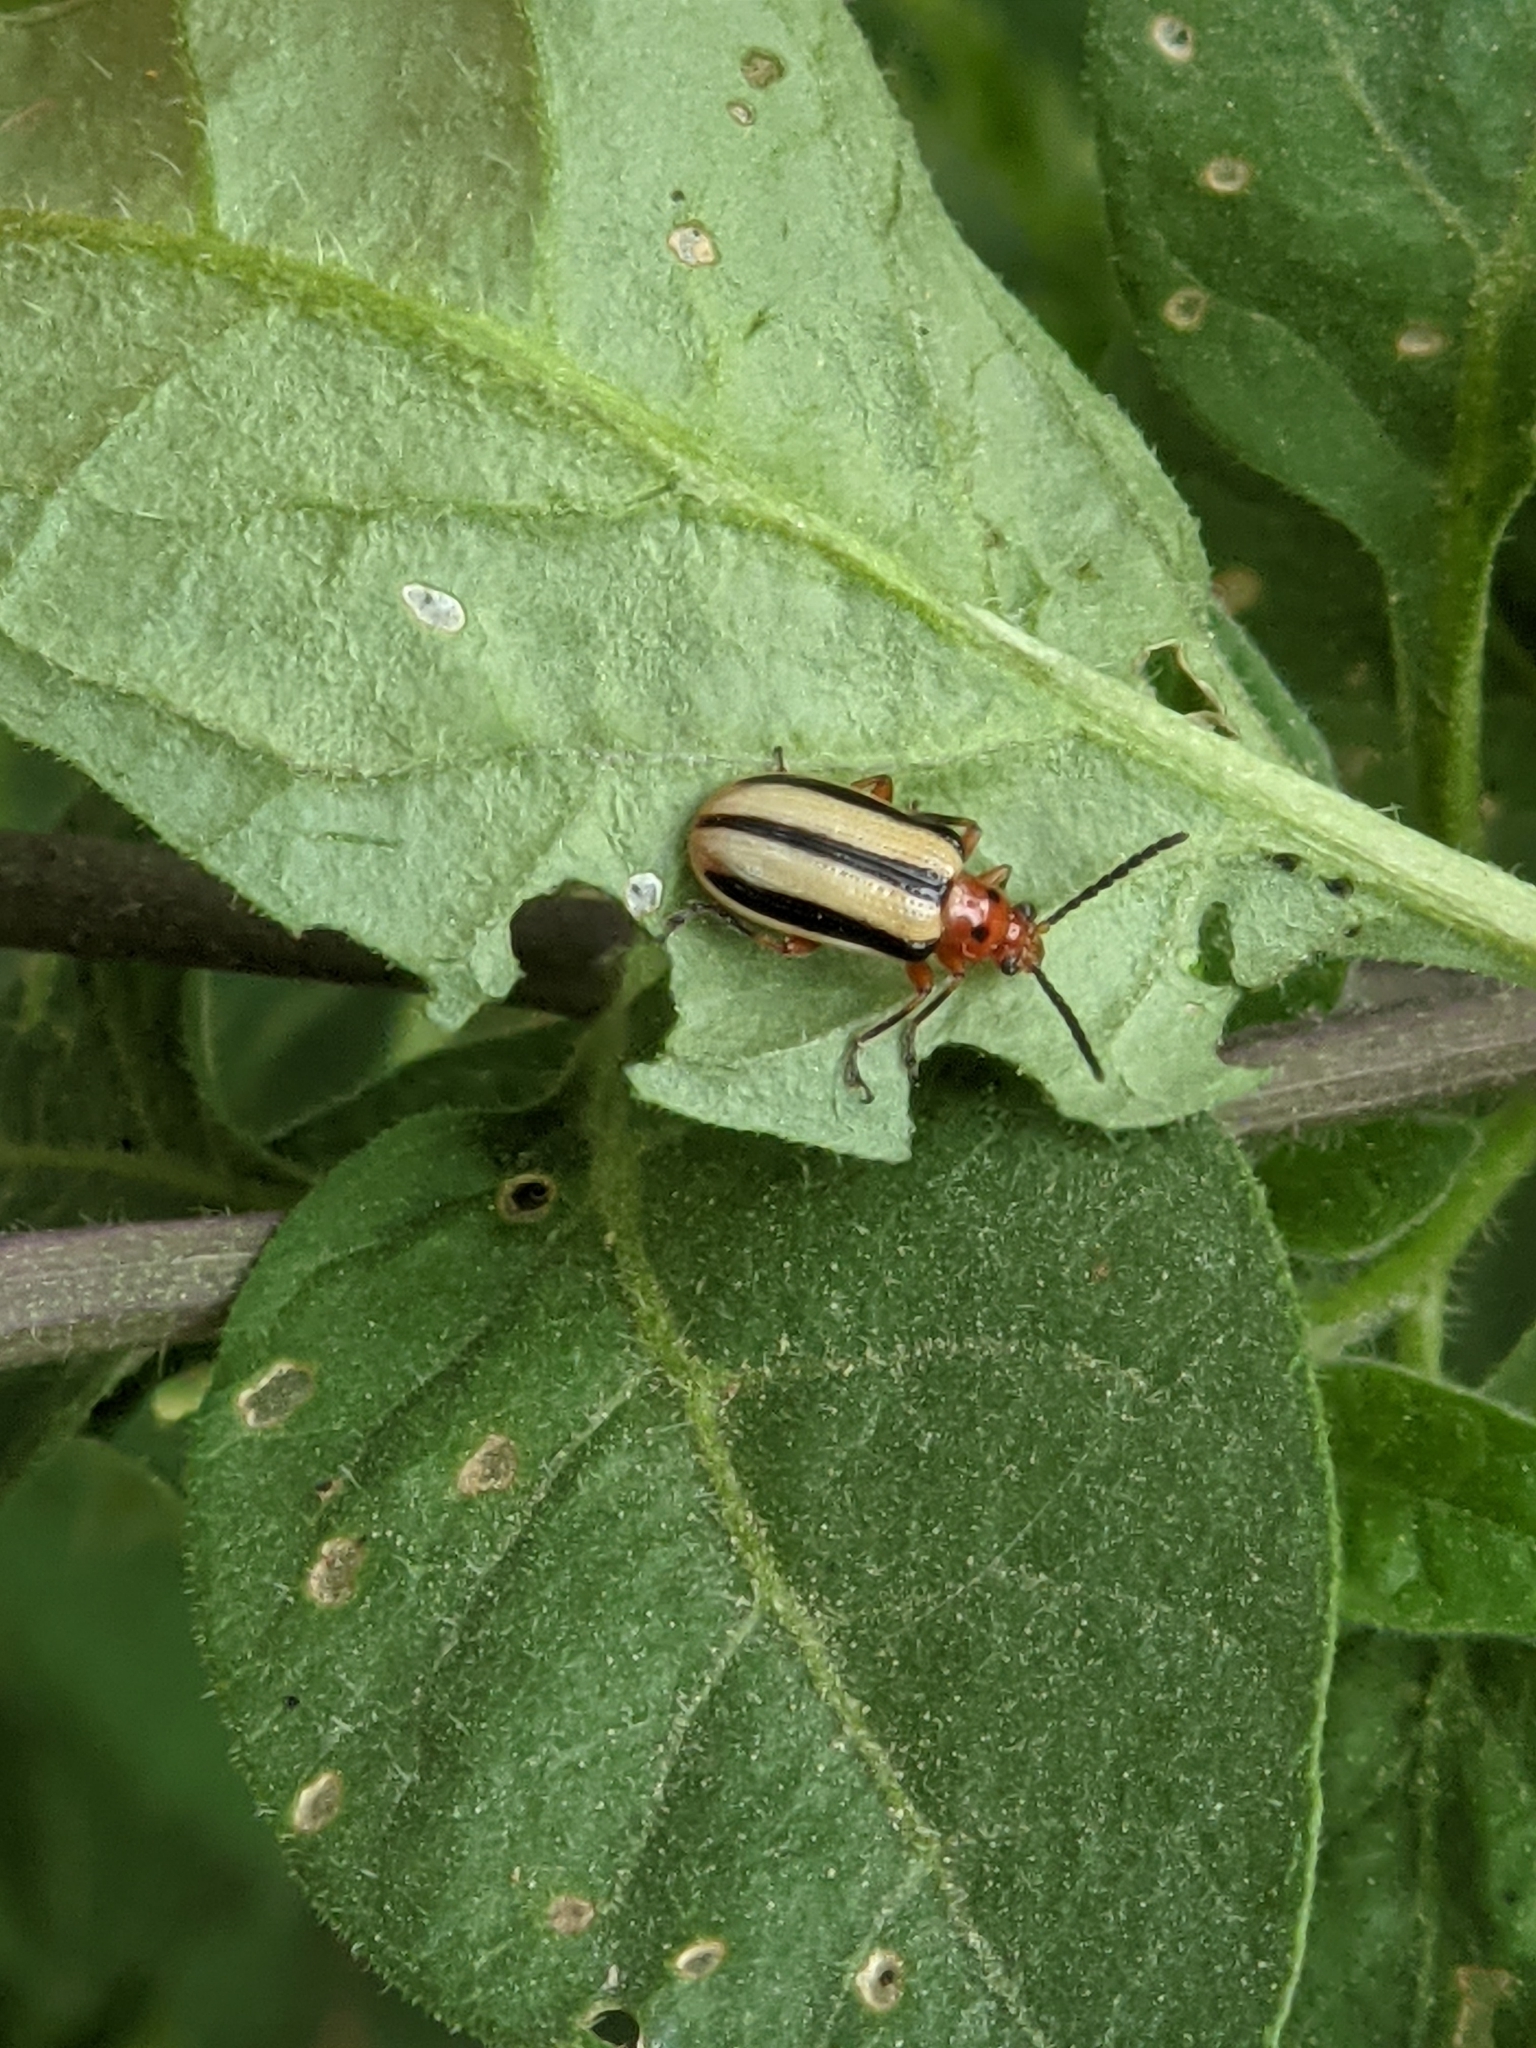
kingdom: Animalia
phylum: Arthropoda
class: Insecta
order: Coleoptera
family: Chrysomelidae
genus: Lema
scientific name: Lema daturaphila
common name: Leaf beetle
